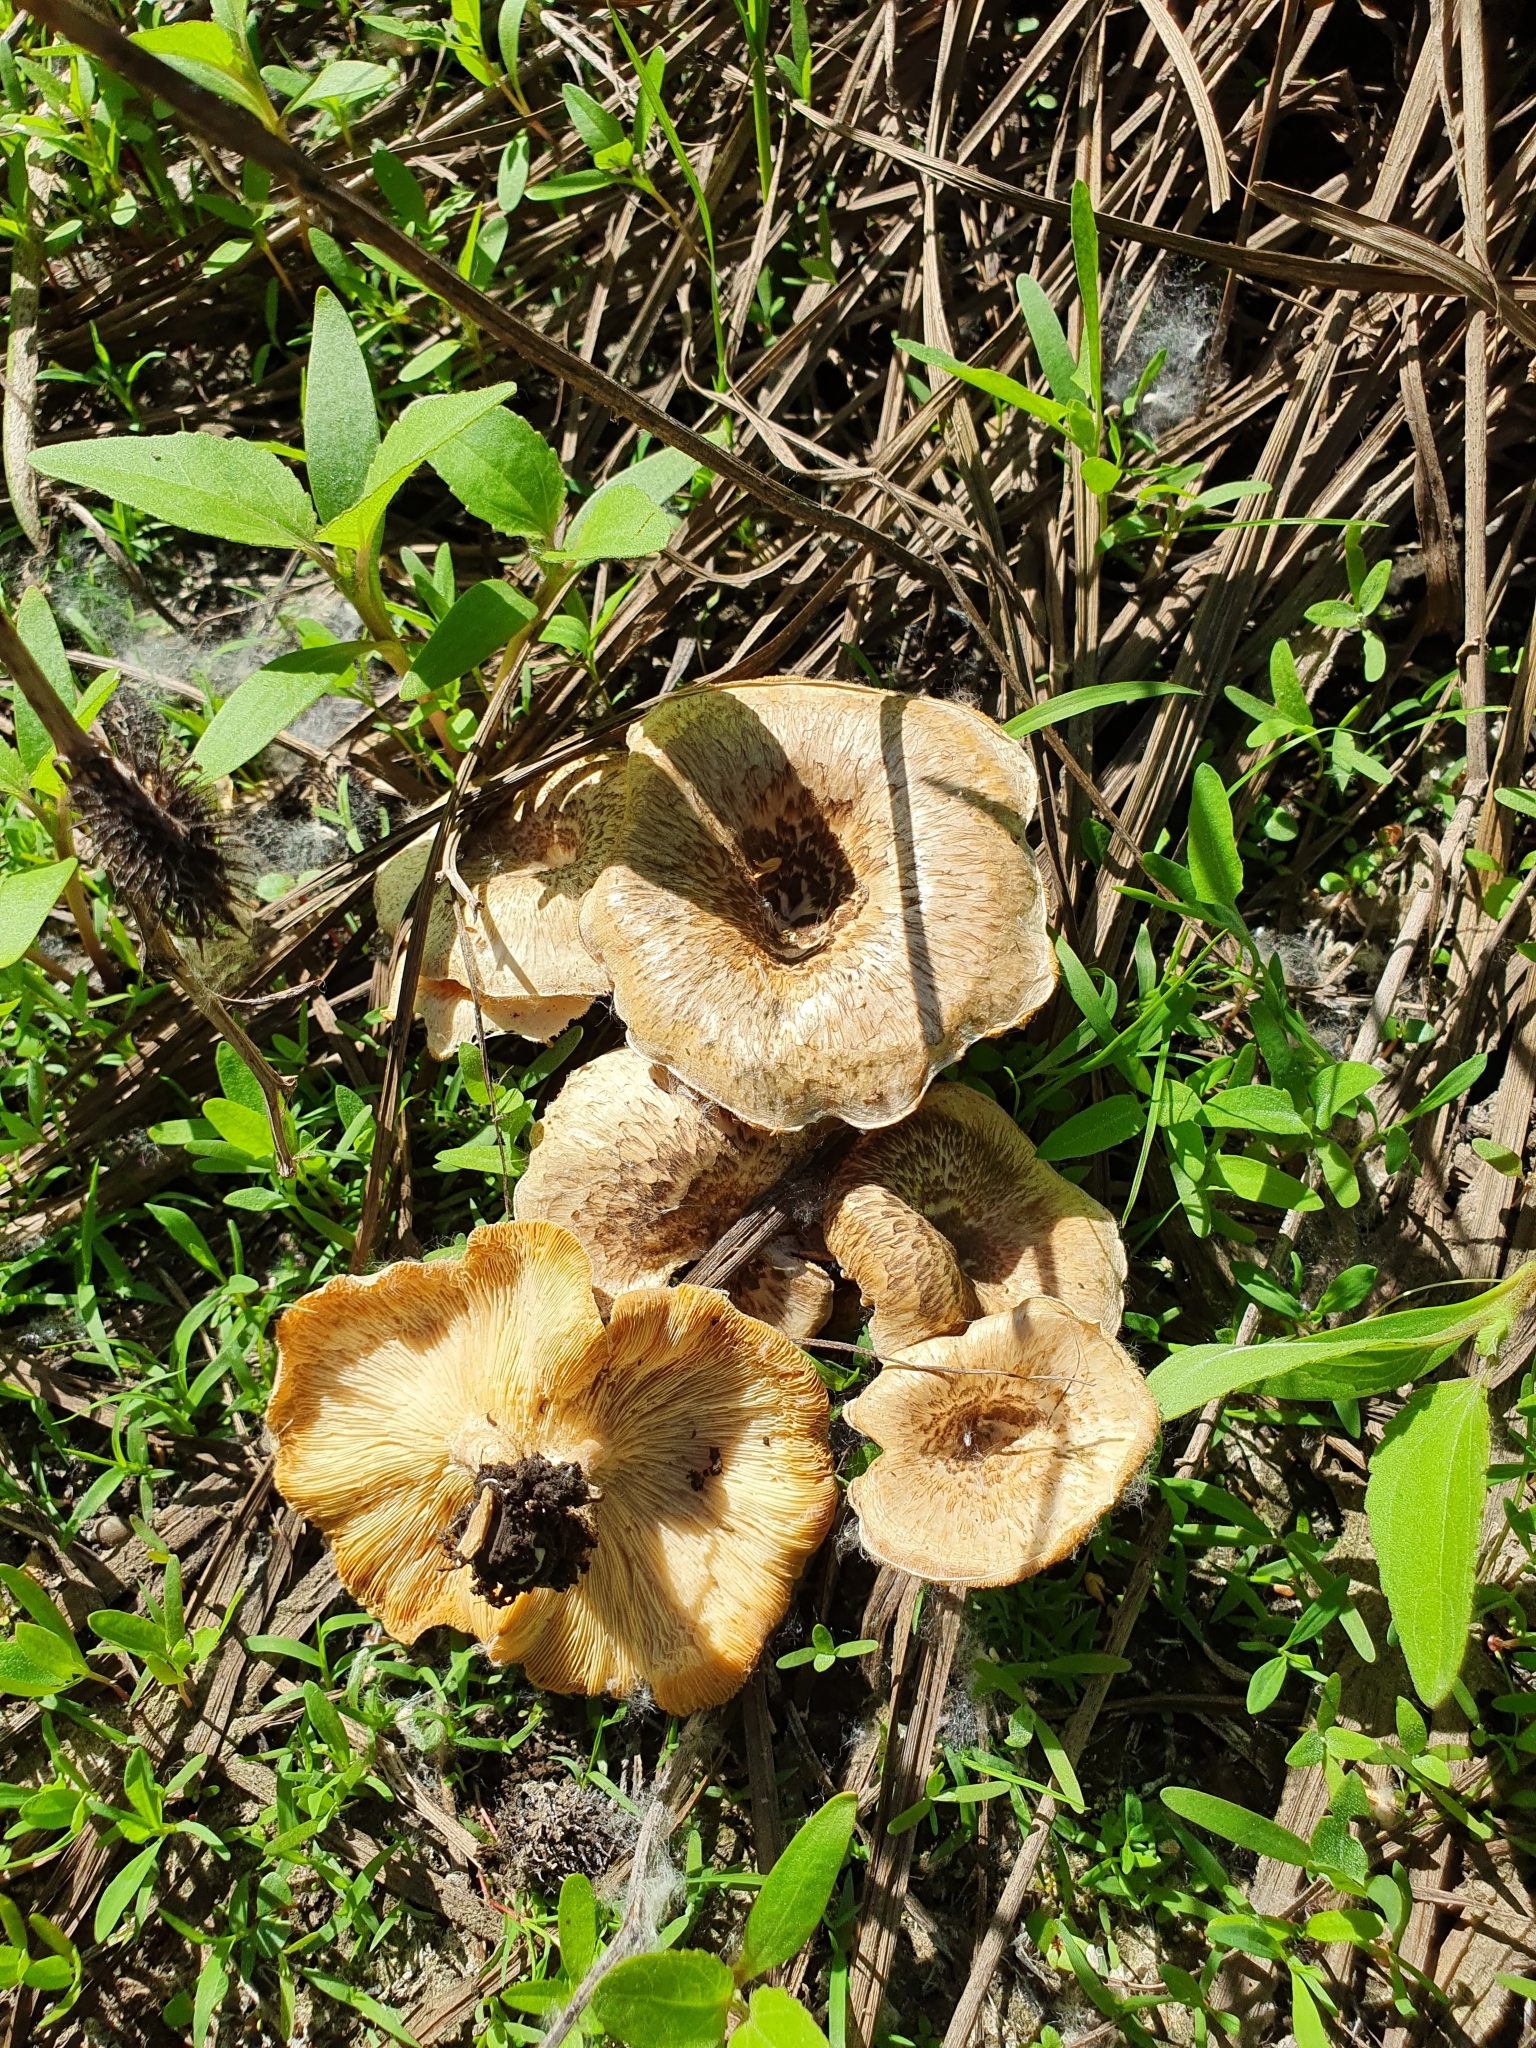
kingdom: Fungi
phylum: Basidiomycota
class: Agaricomycetes
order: Polyporales
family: Polyporaceae
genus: Lentinus
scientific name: Lentinus tigrinus
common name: Tiger sawgill
